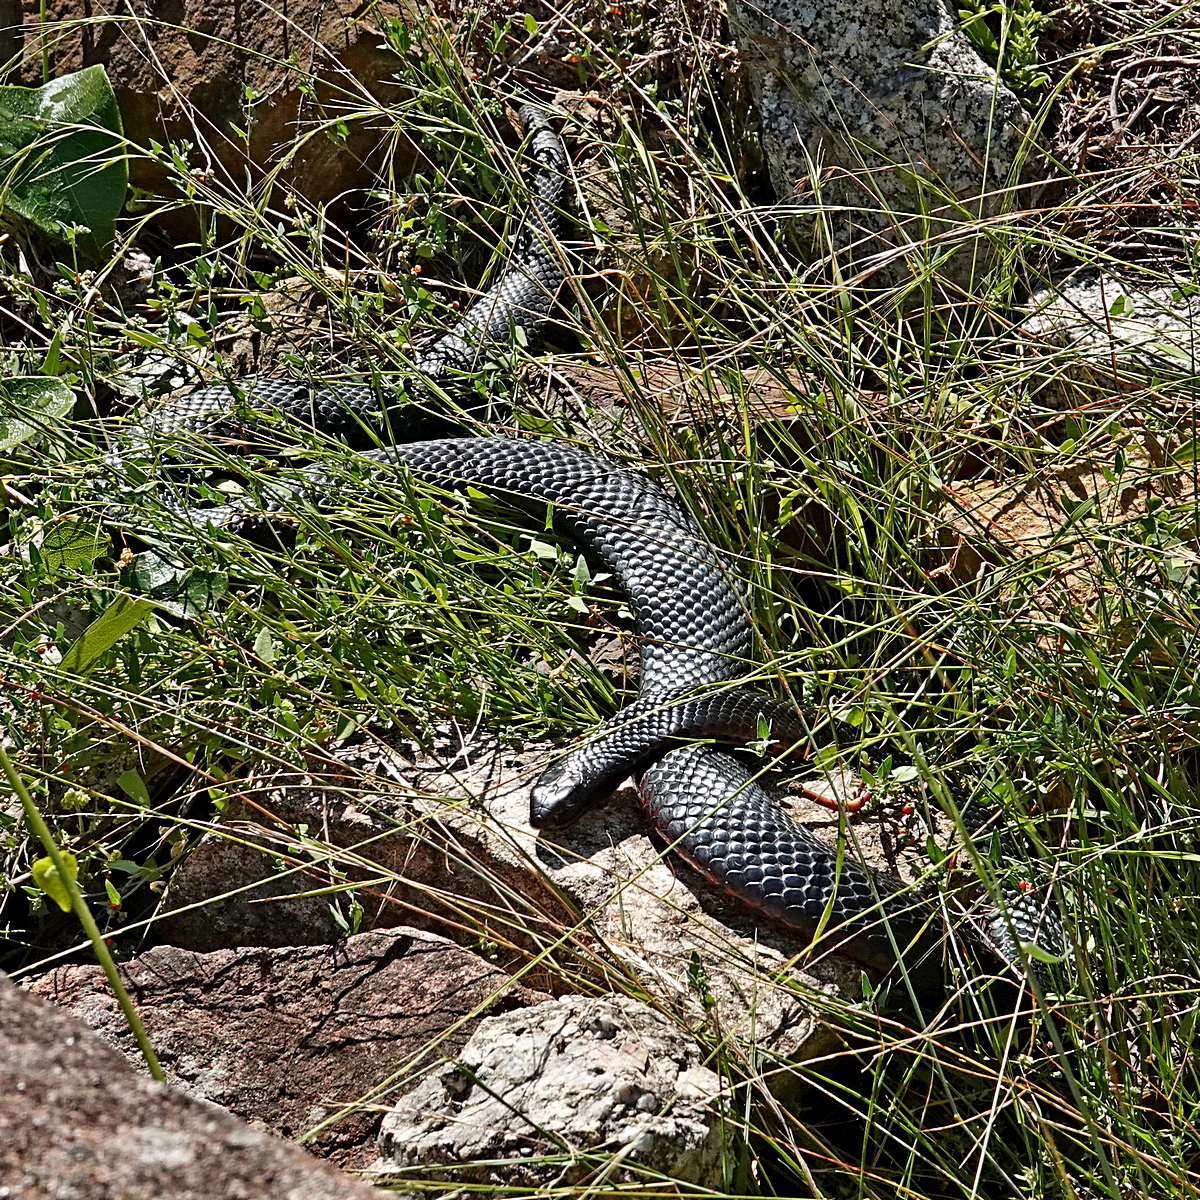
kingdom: Animalia
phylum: Chordata
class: Squamata
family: Elapidae
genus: Pseudechis
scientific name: Pseudechis porphyriacus
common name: Australian black snake
